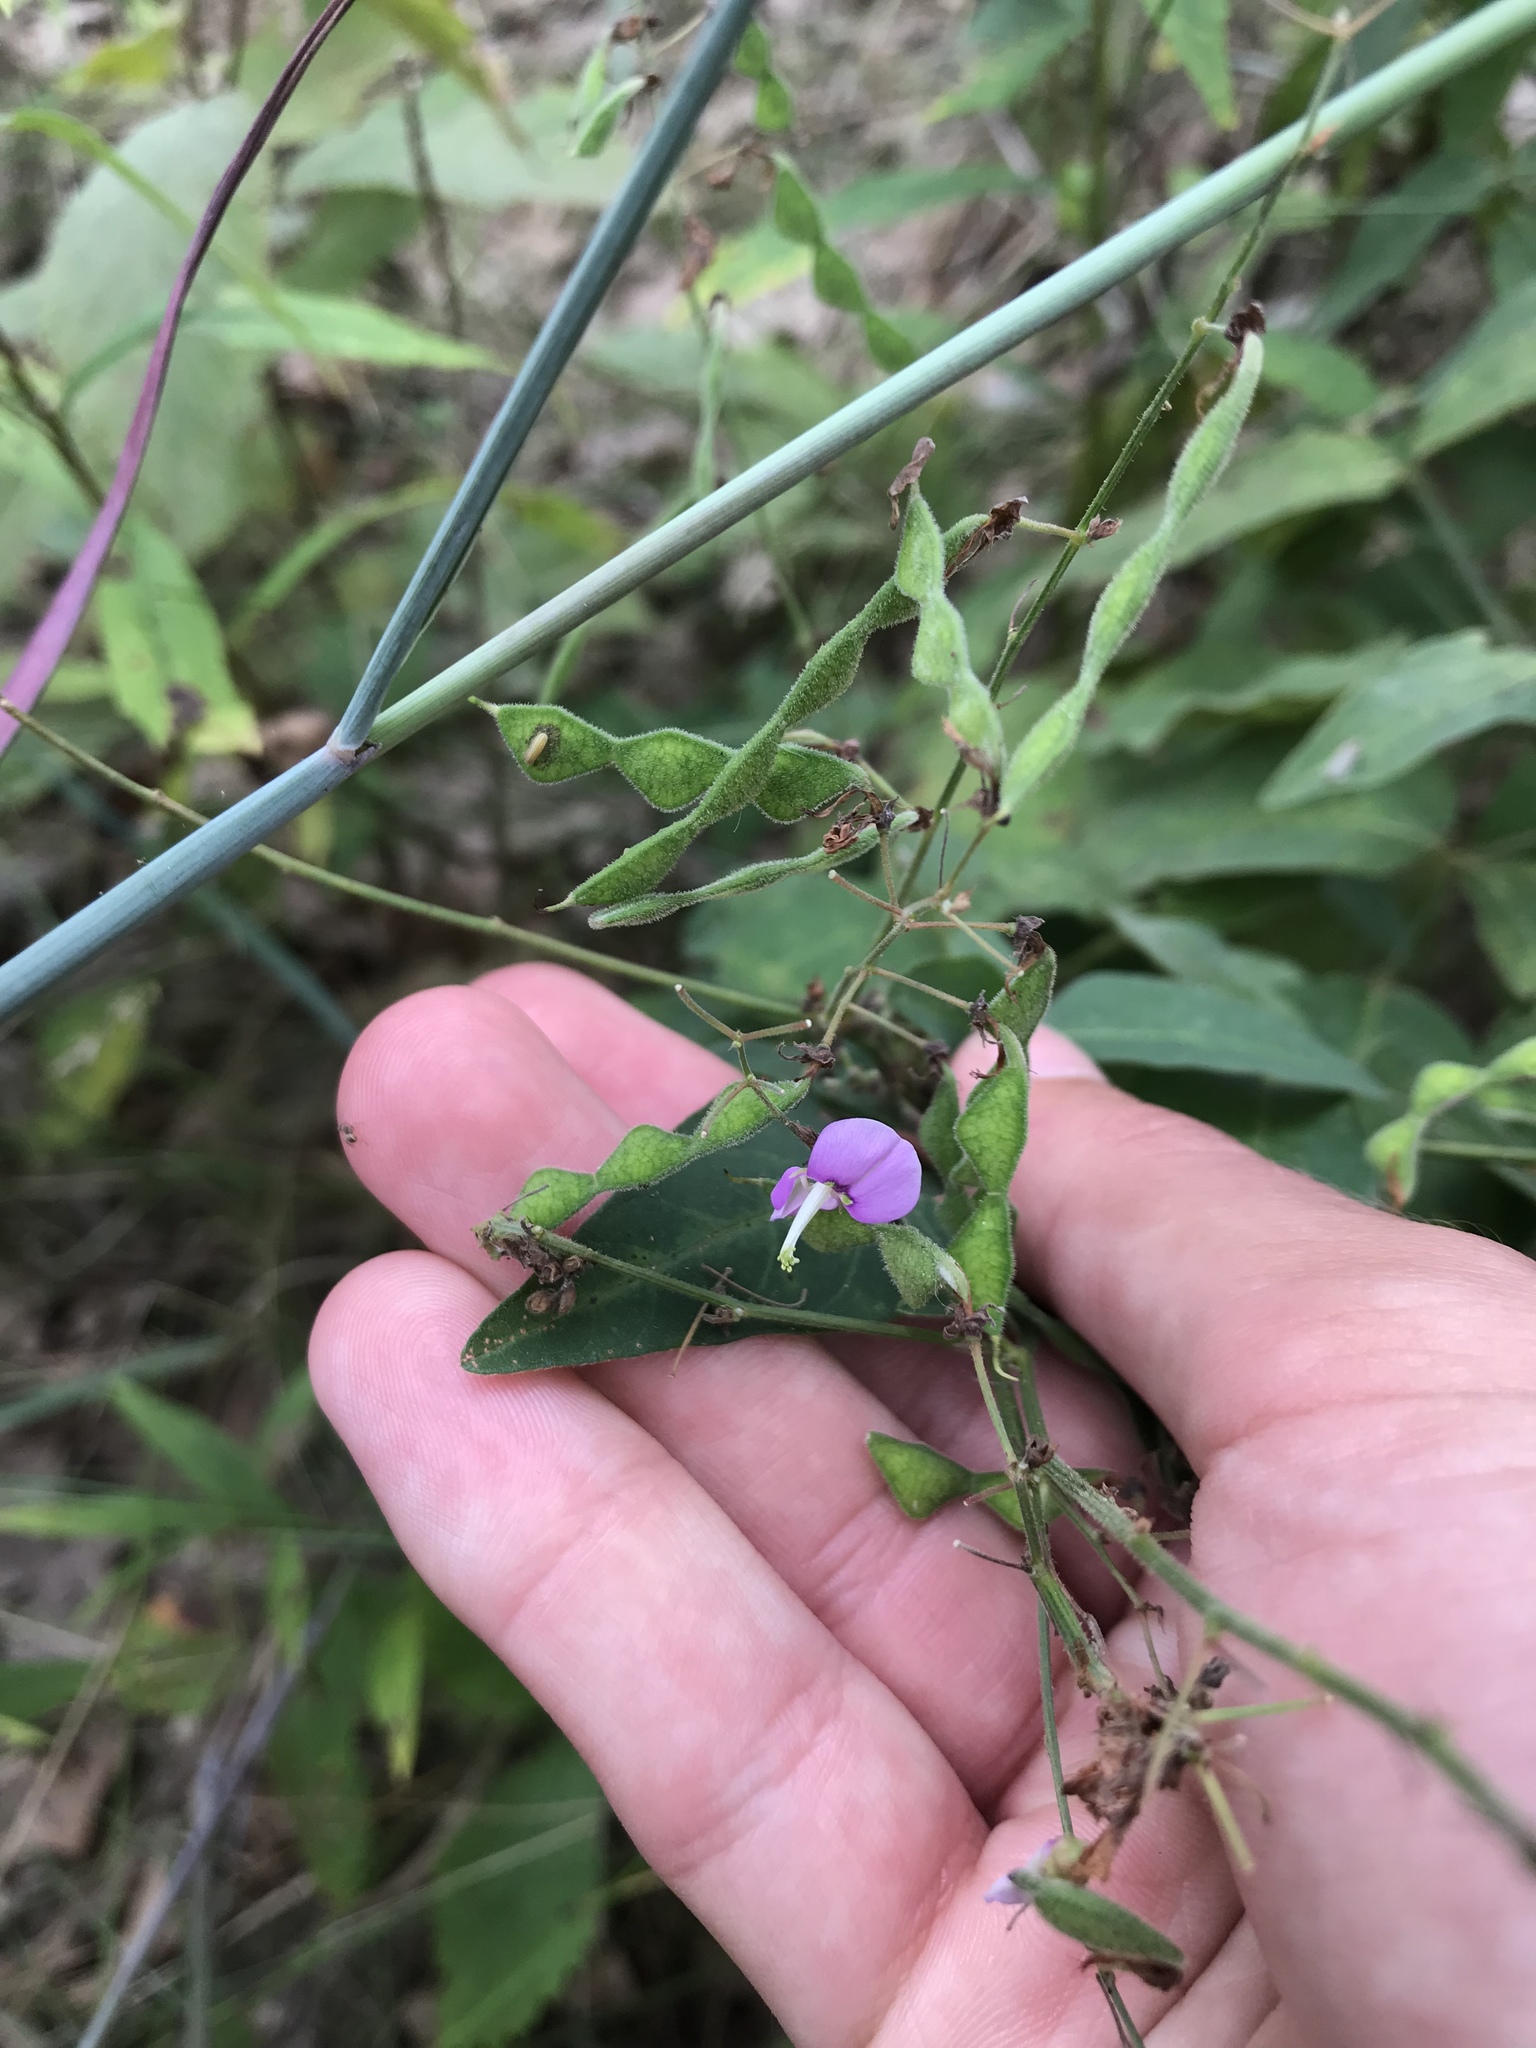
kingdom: Plantae
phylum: Tracheophyta
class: Magnoliopsida
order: Fabales
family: Fabaceae
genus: Desmodium
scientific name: Desmodium perplexum
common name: Perplexed tick trefoil
